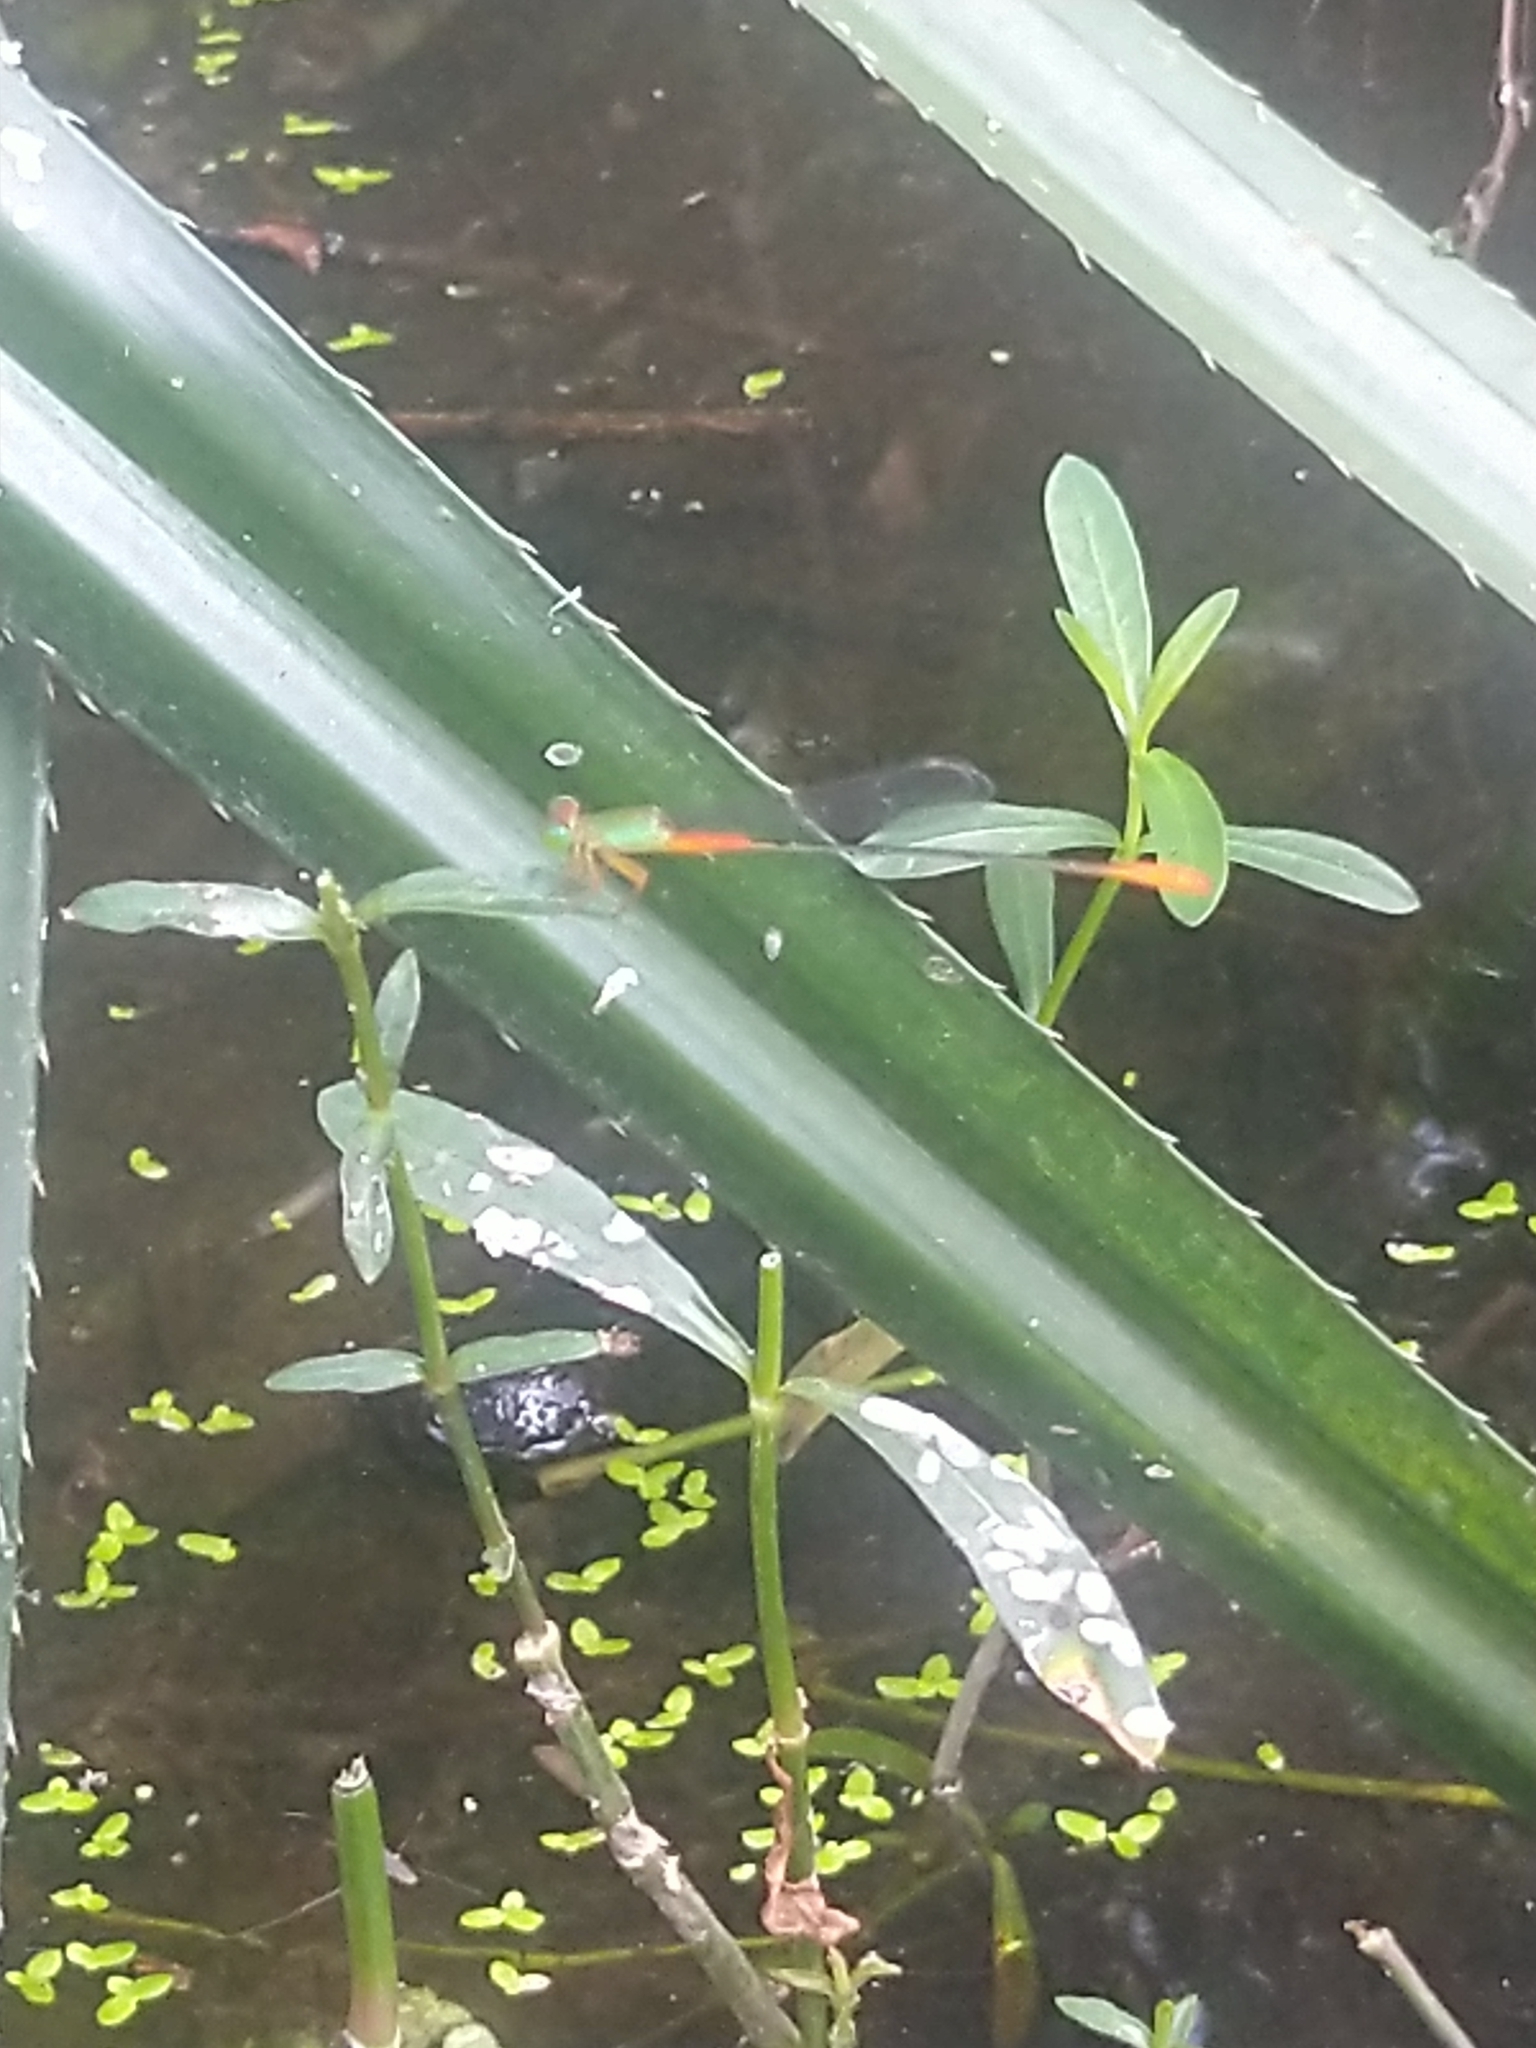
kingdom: Animalia
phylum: Arthropoda
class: Insecta
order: Odonata
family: Coenagrionidae
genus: Ceriagrion
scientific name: Ceriagrion cerinorubellum
